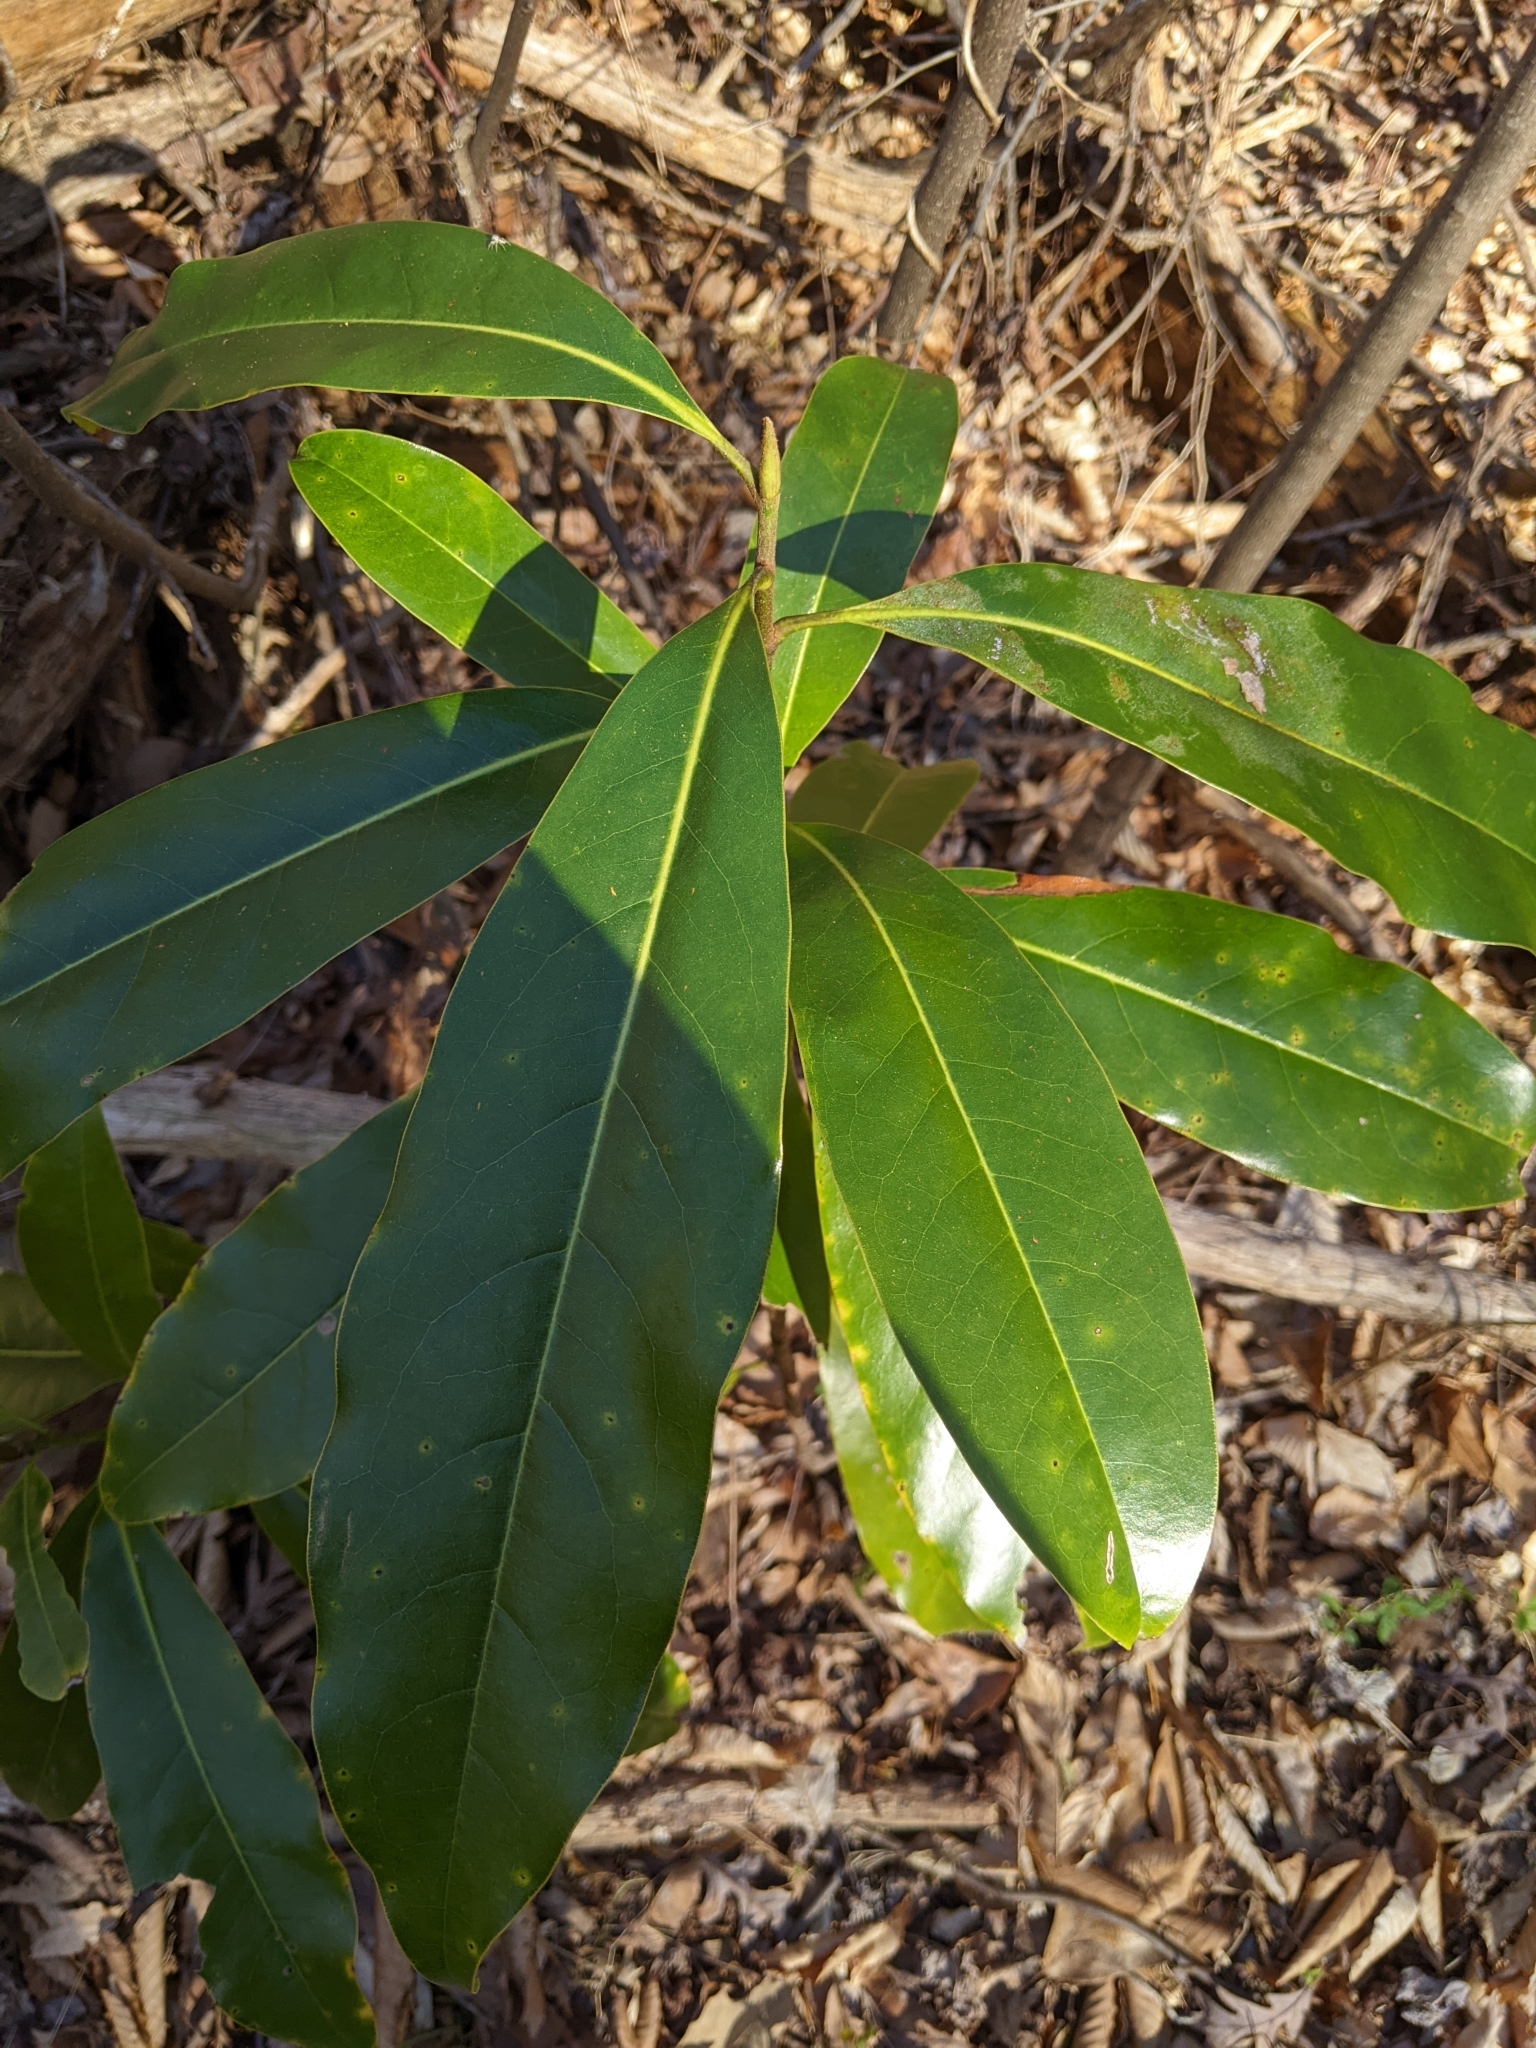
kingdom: Plantae
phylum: Tracheophyta
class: Magnoliopsida
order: Magnoliales
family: Magnoliaceae
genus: Magnolia
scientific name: Magnolia grandiflora
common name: Southern magnolia
